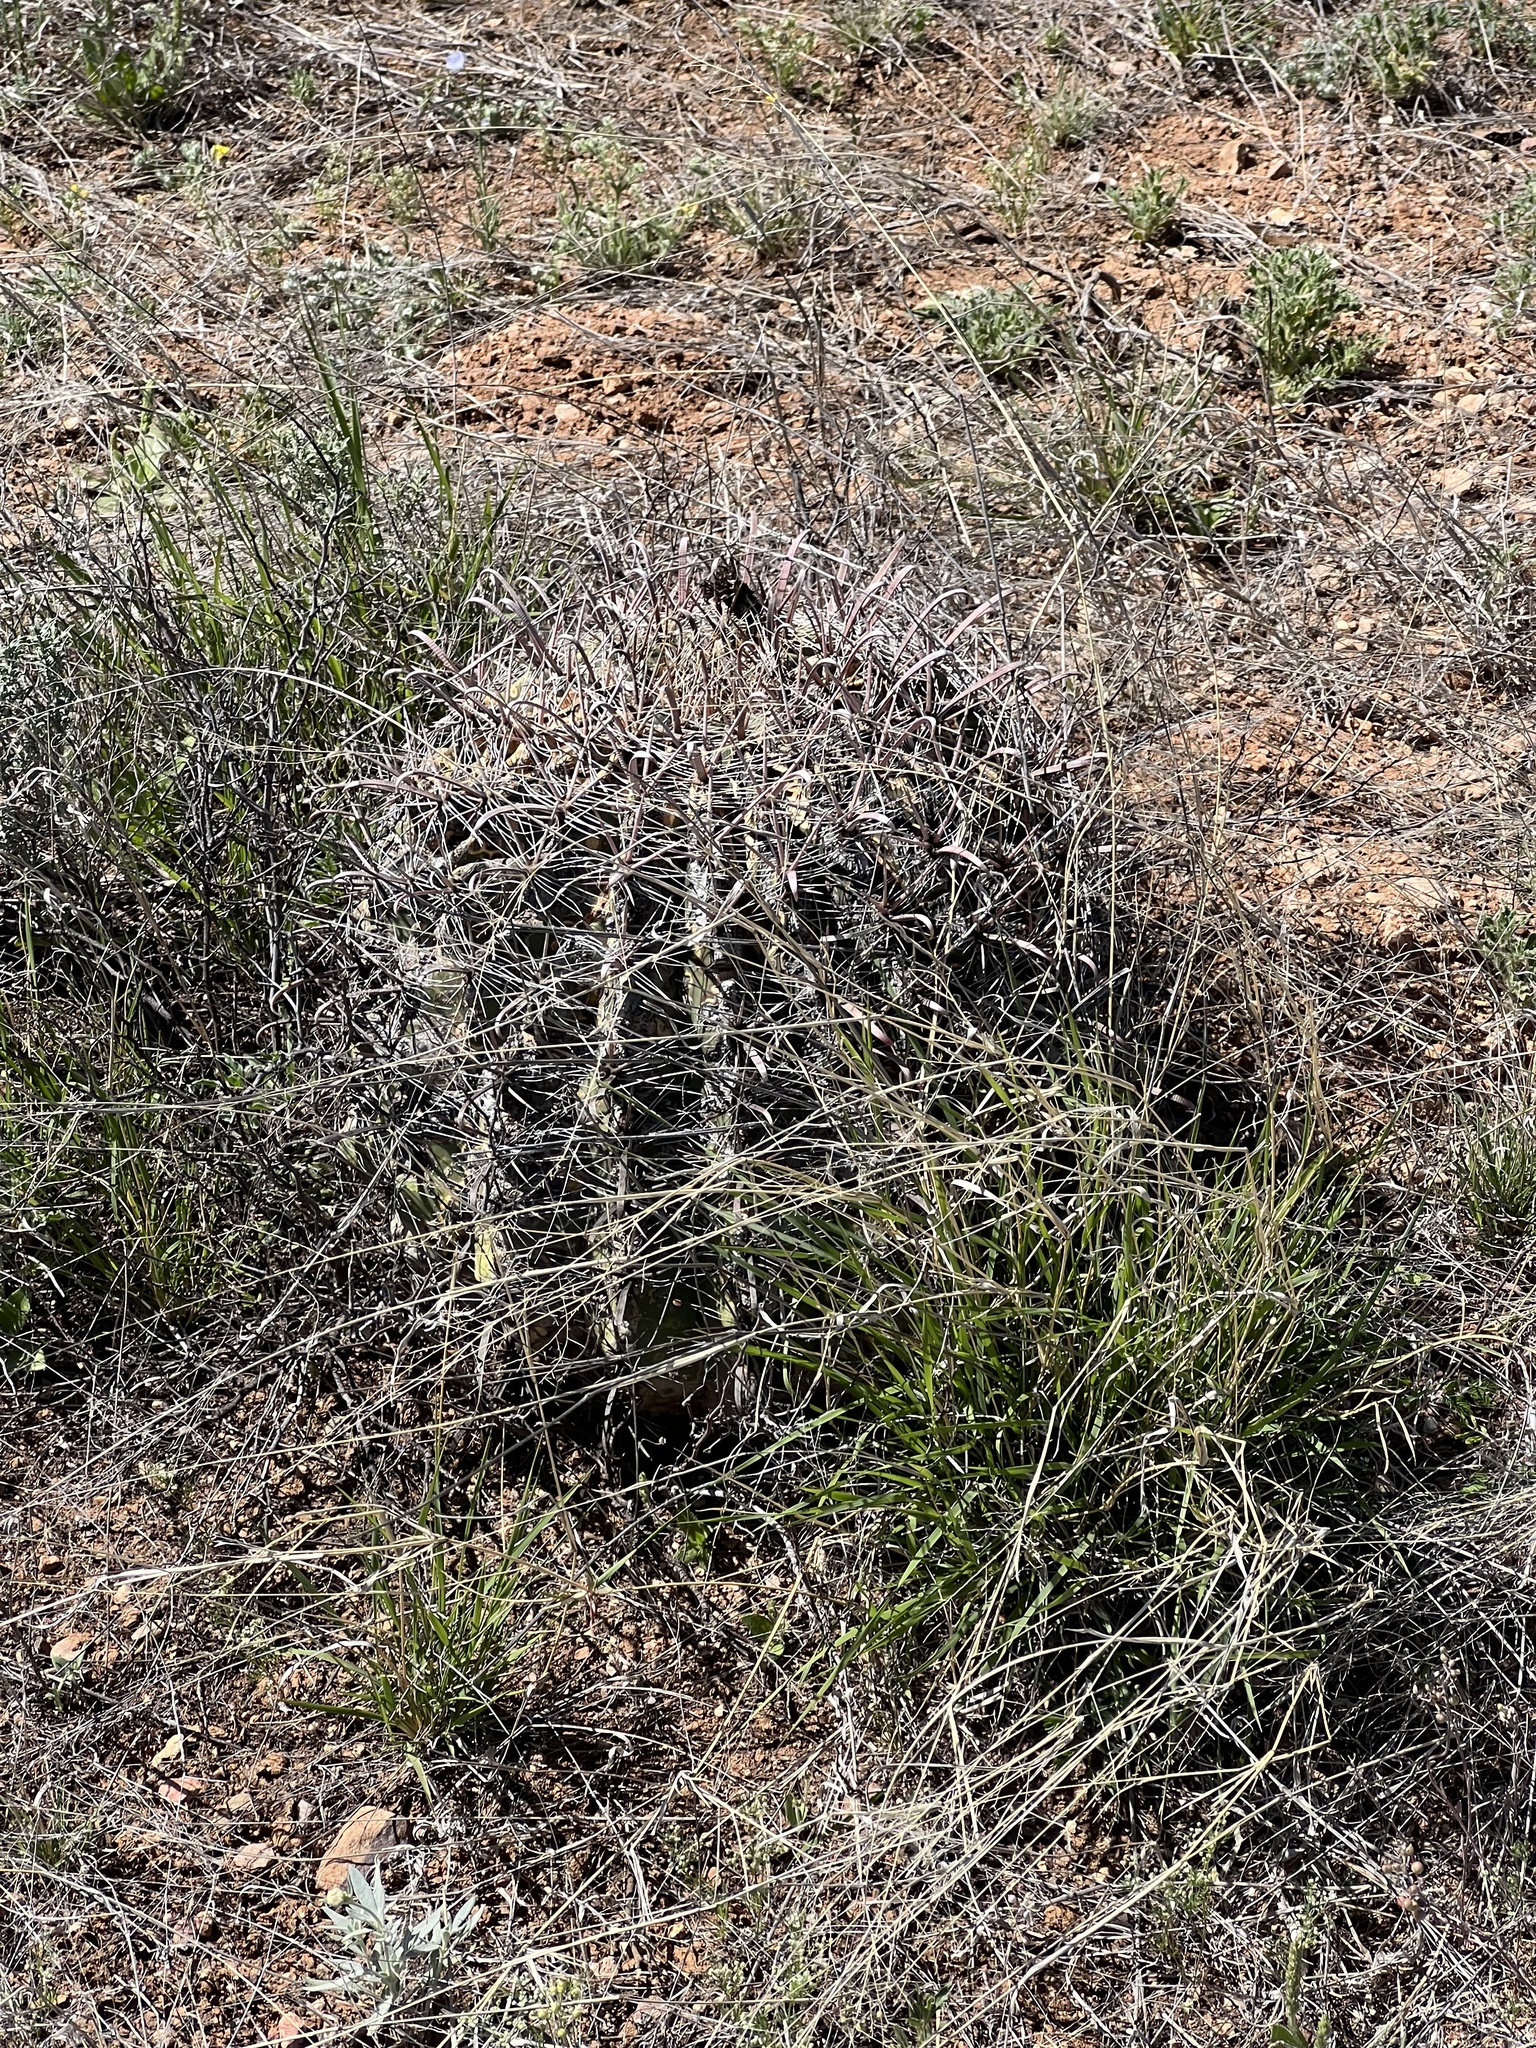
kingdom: Plantae
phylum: Tracheophyta
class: Magnoliopsida
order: Caryophyllales
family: Cactaceae
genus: Ferocactus
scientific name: Ferocactus wislizeni
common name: Candy barrel cactus
